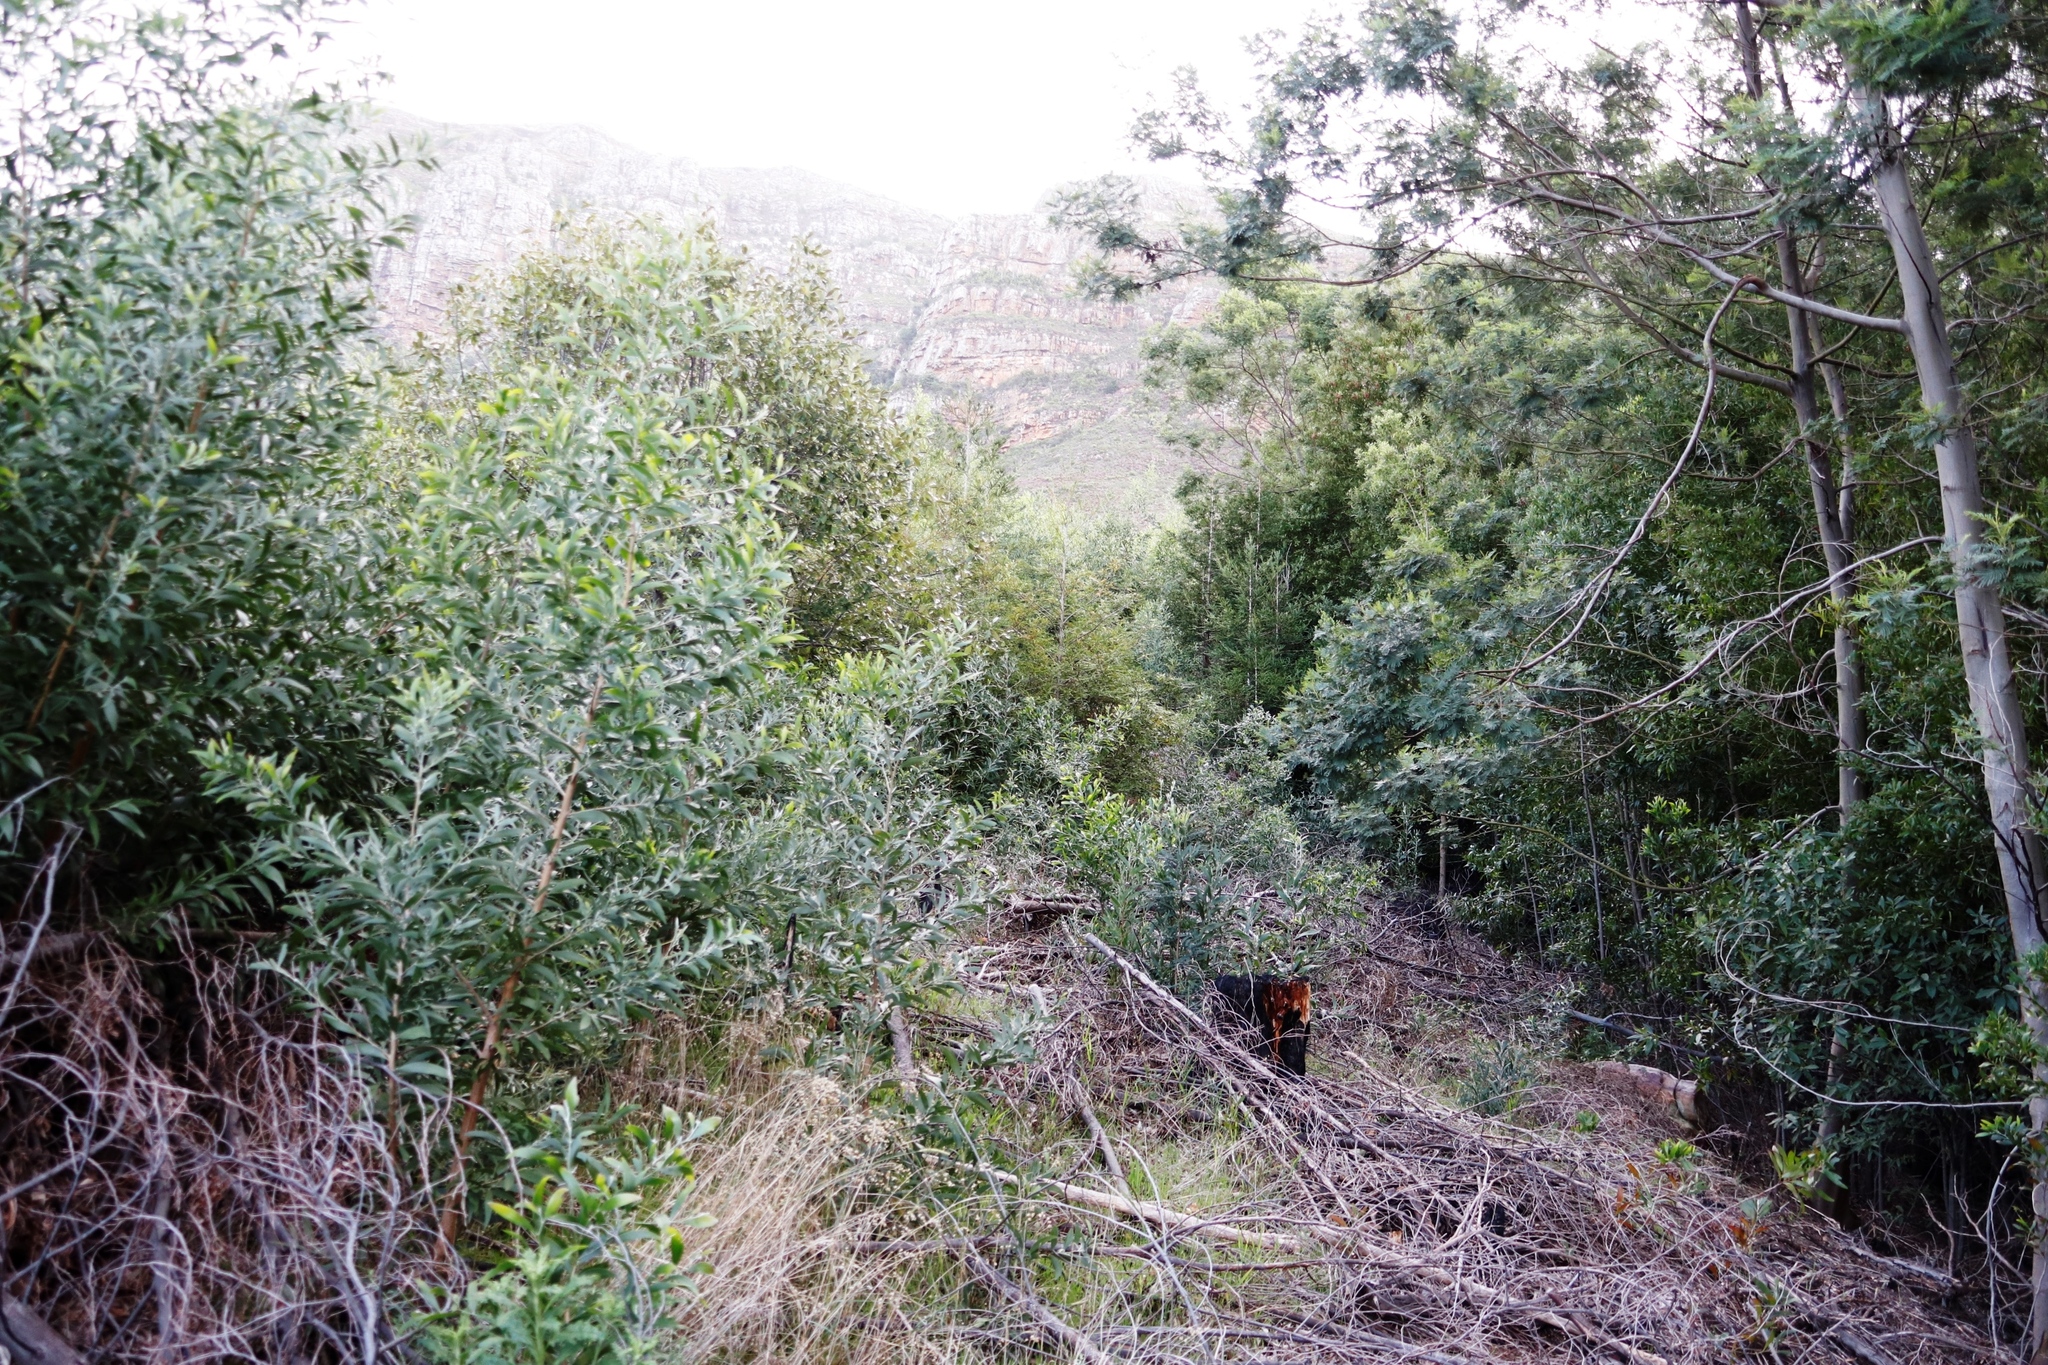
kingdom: Plantae
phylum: Tracheophyta
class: Magnoliopsida
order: Fabales
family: Fabaceae
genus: Acacia
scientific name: Acacia melanoxylon
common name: Blackwood
